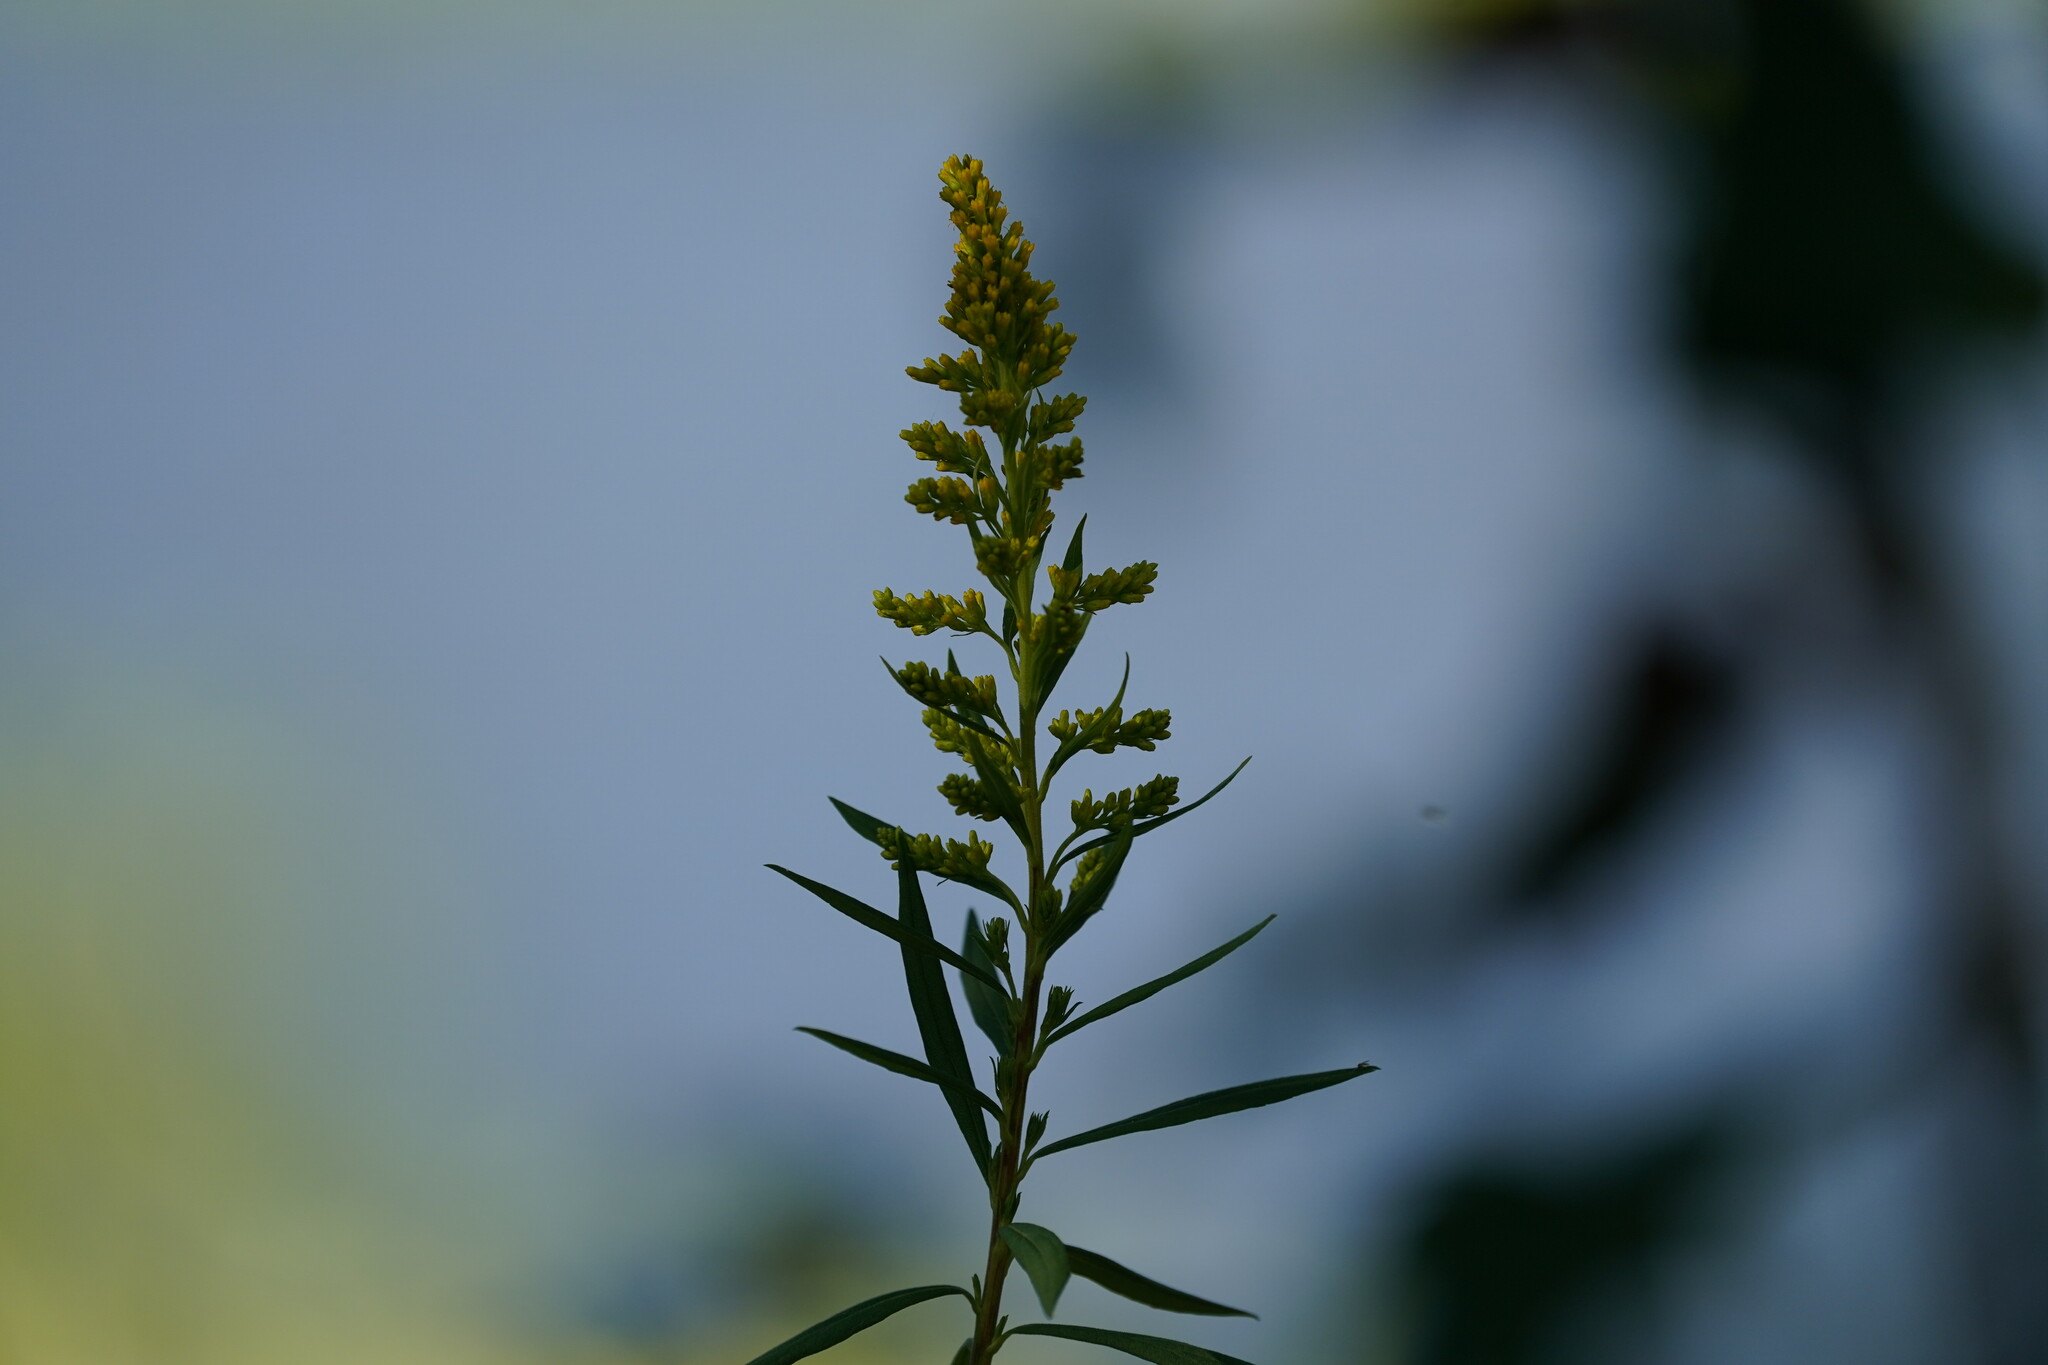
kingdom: Plantae
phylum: Tracheophyta
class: Magnoliopsida
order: Asterales
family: Asteraceae
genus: Solidago
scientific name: Solidago altissima
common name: Late goldenrod
